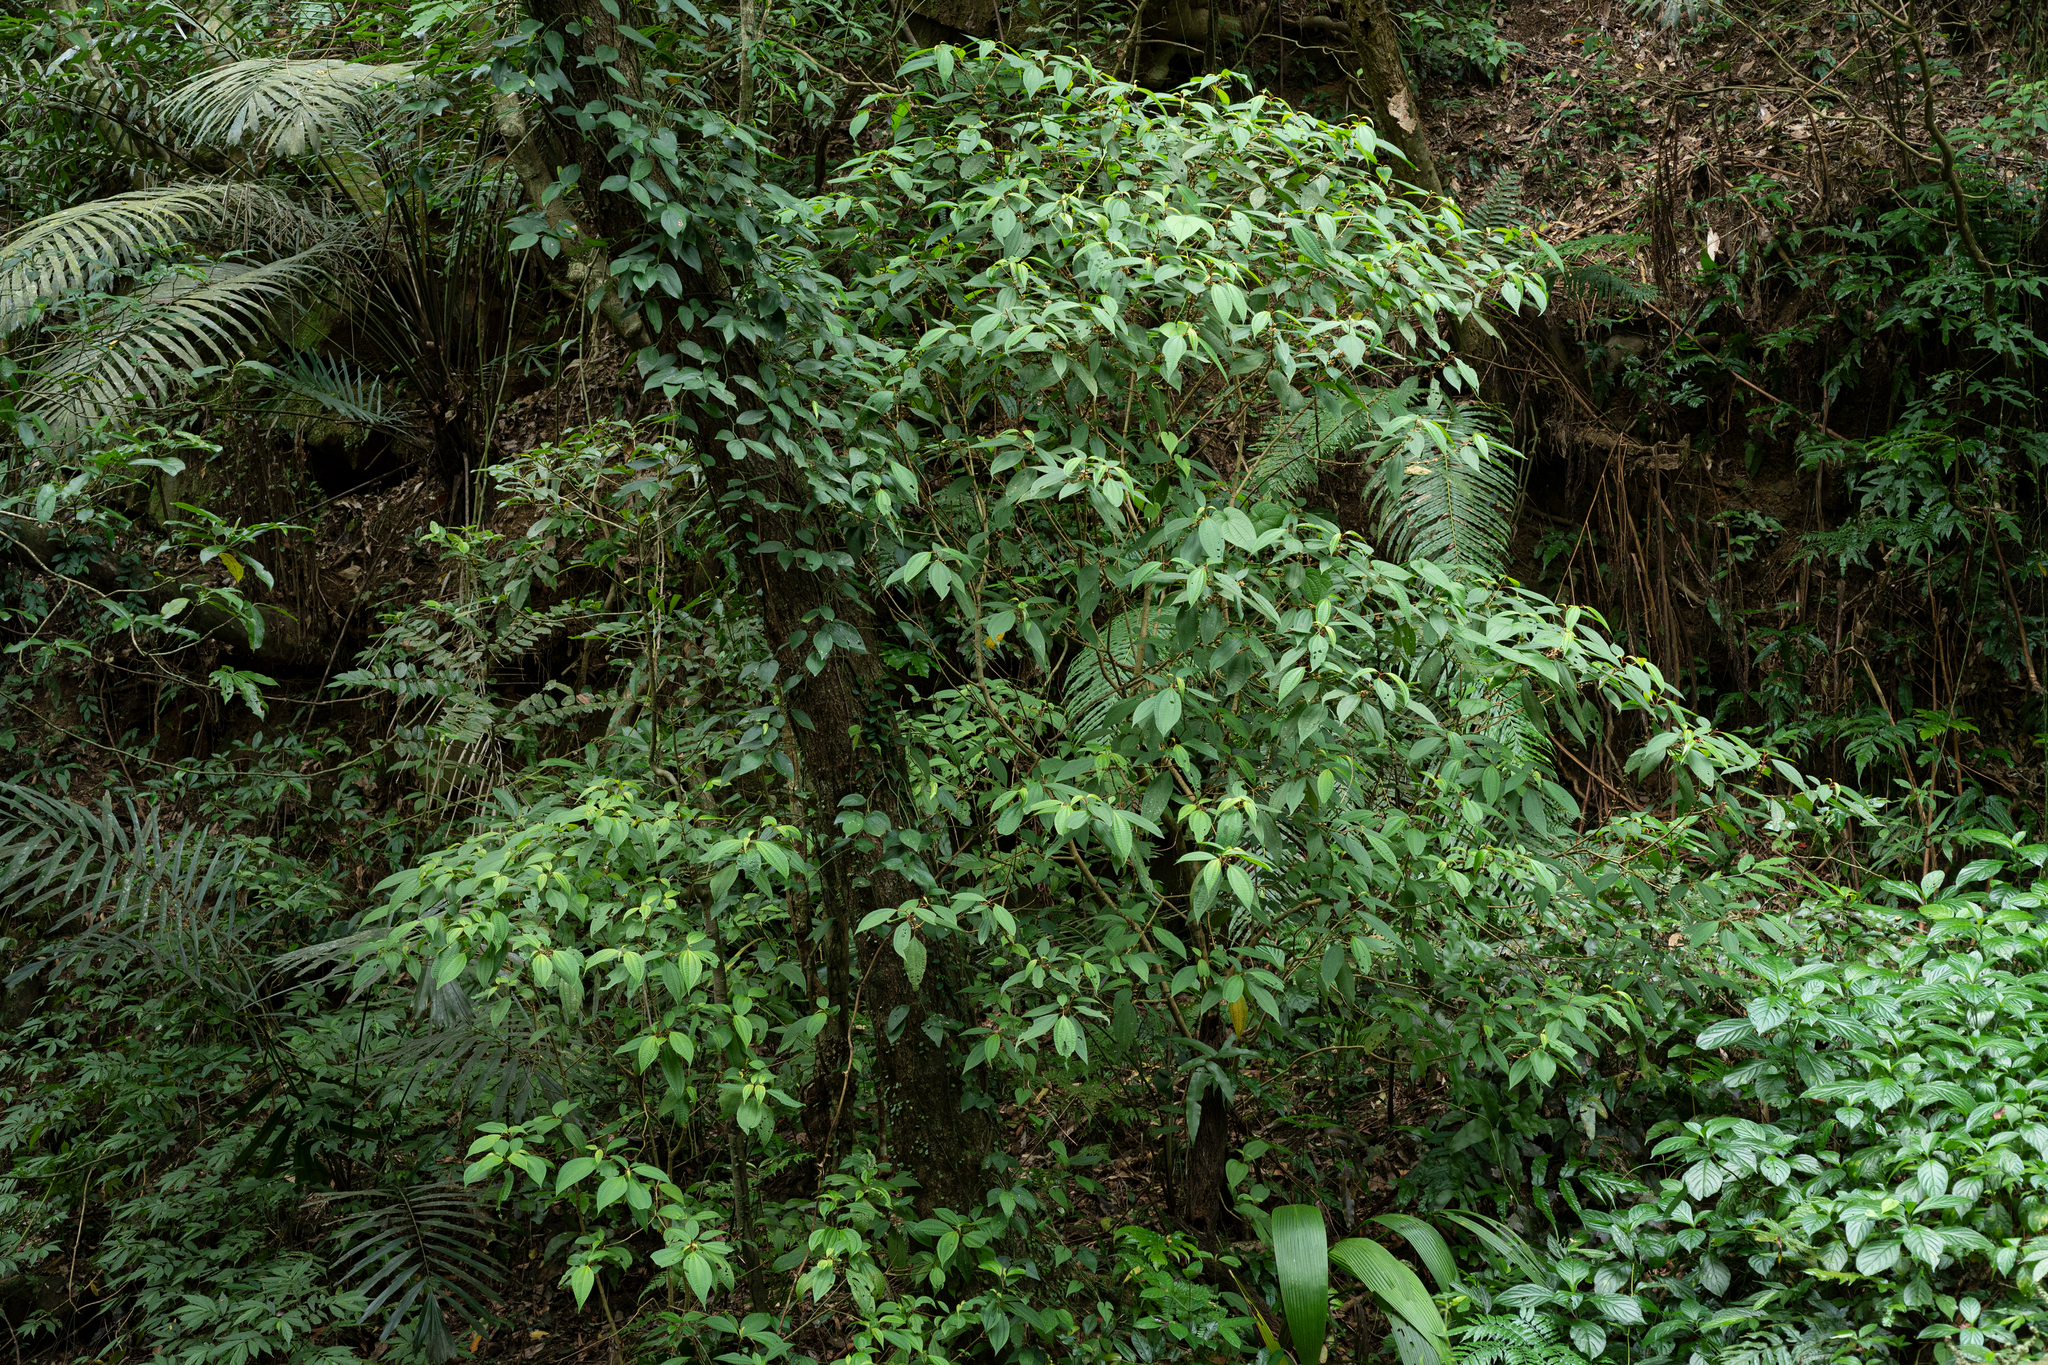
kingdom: Plantae
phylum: Tracheophyta
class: Magnoliopsida
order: Myrtales
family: Melastomataceae
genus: Blastus
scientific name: Blastus cochinchinensis
